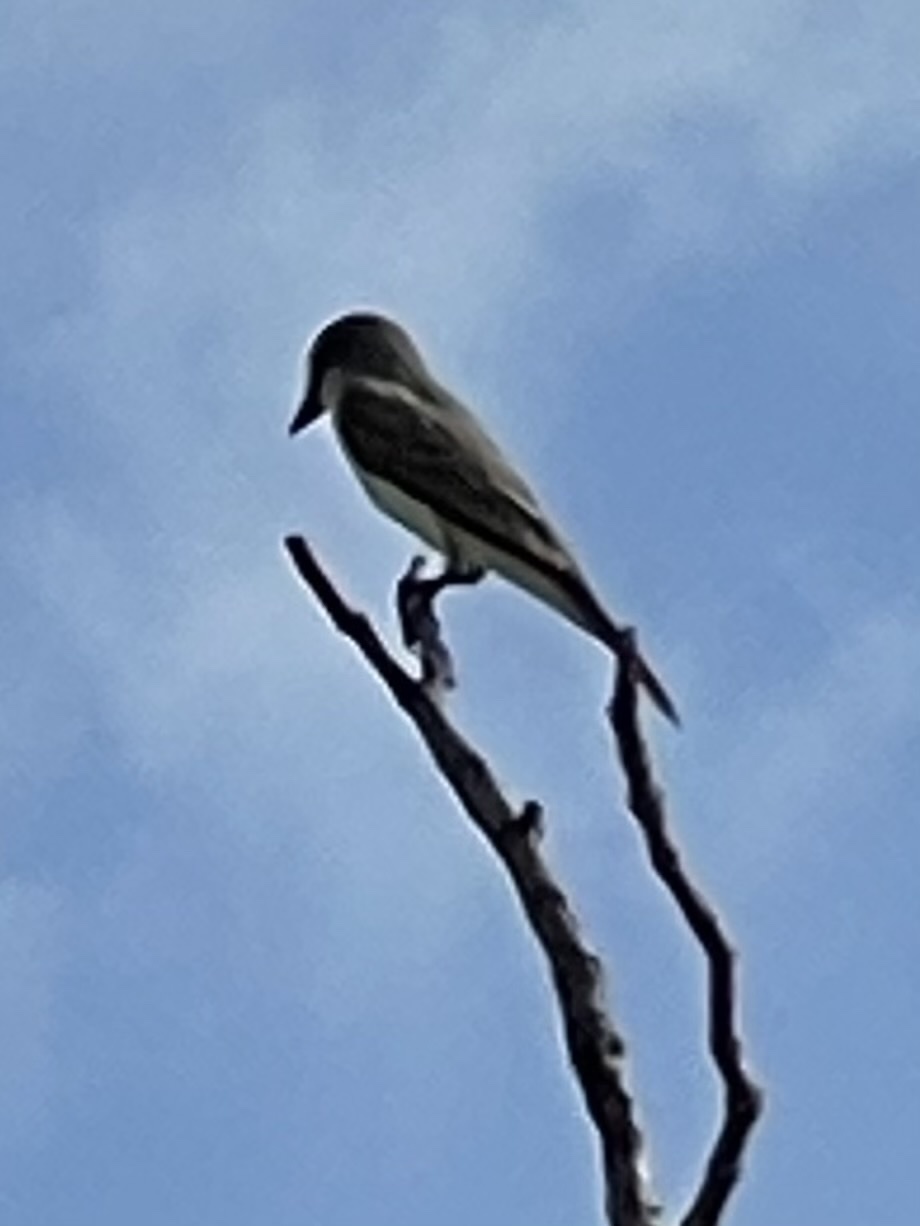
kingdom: Animalia
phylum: Chordata
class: Aves
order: Passeriformes
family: Tyrannidae
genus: Tyrannus
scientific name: Tyrannus dominicensis
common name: Gray kingbird
